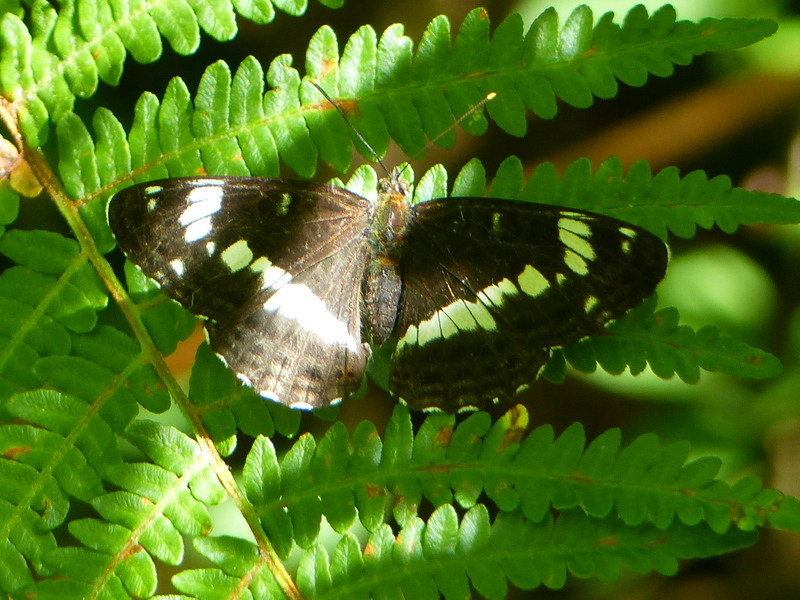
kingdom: Animalia
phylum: Arthropoda
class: Insecta
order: Lepidoptera
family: Nymphalidae
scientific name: Nymphalidae
